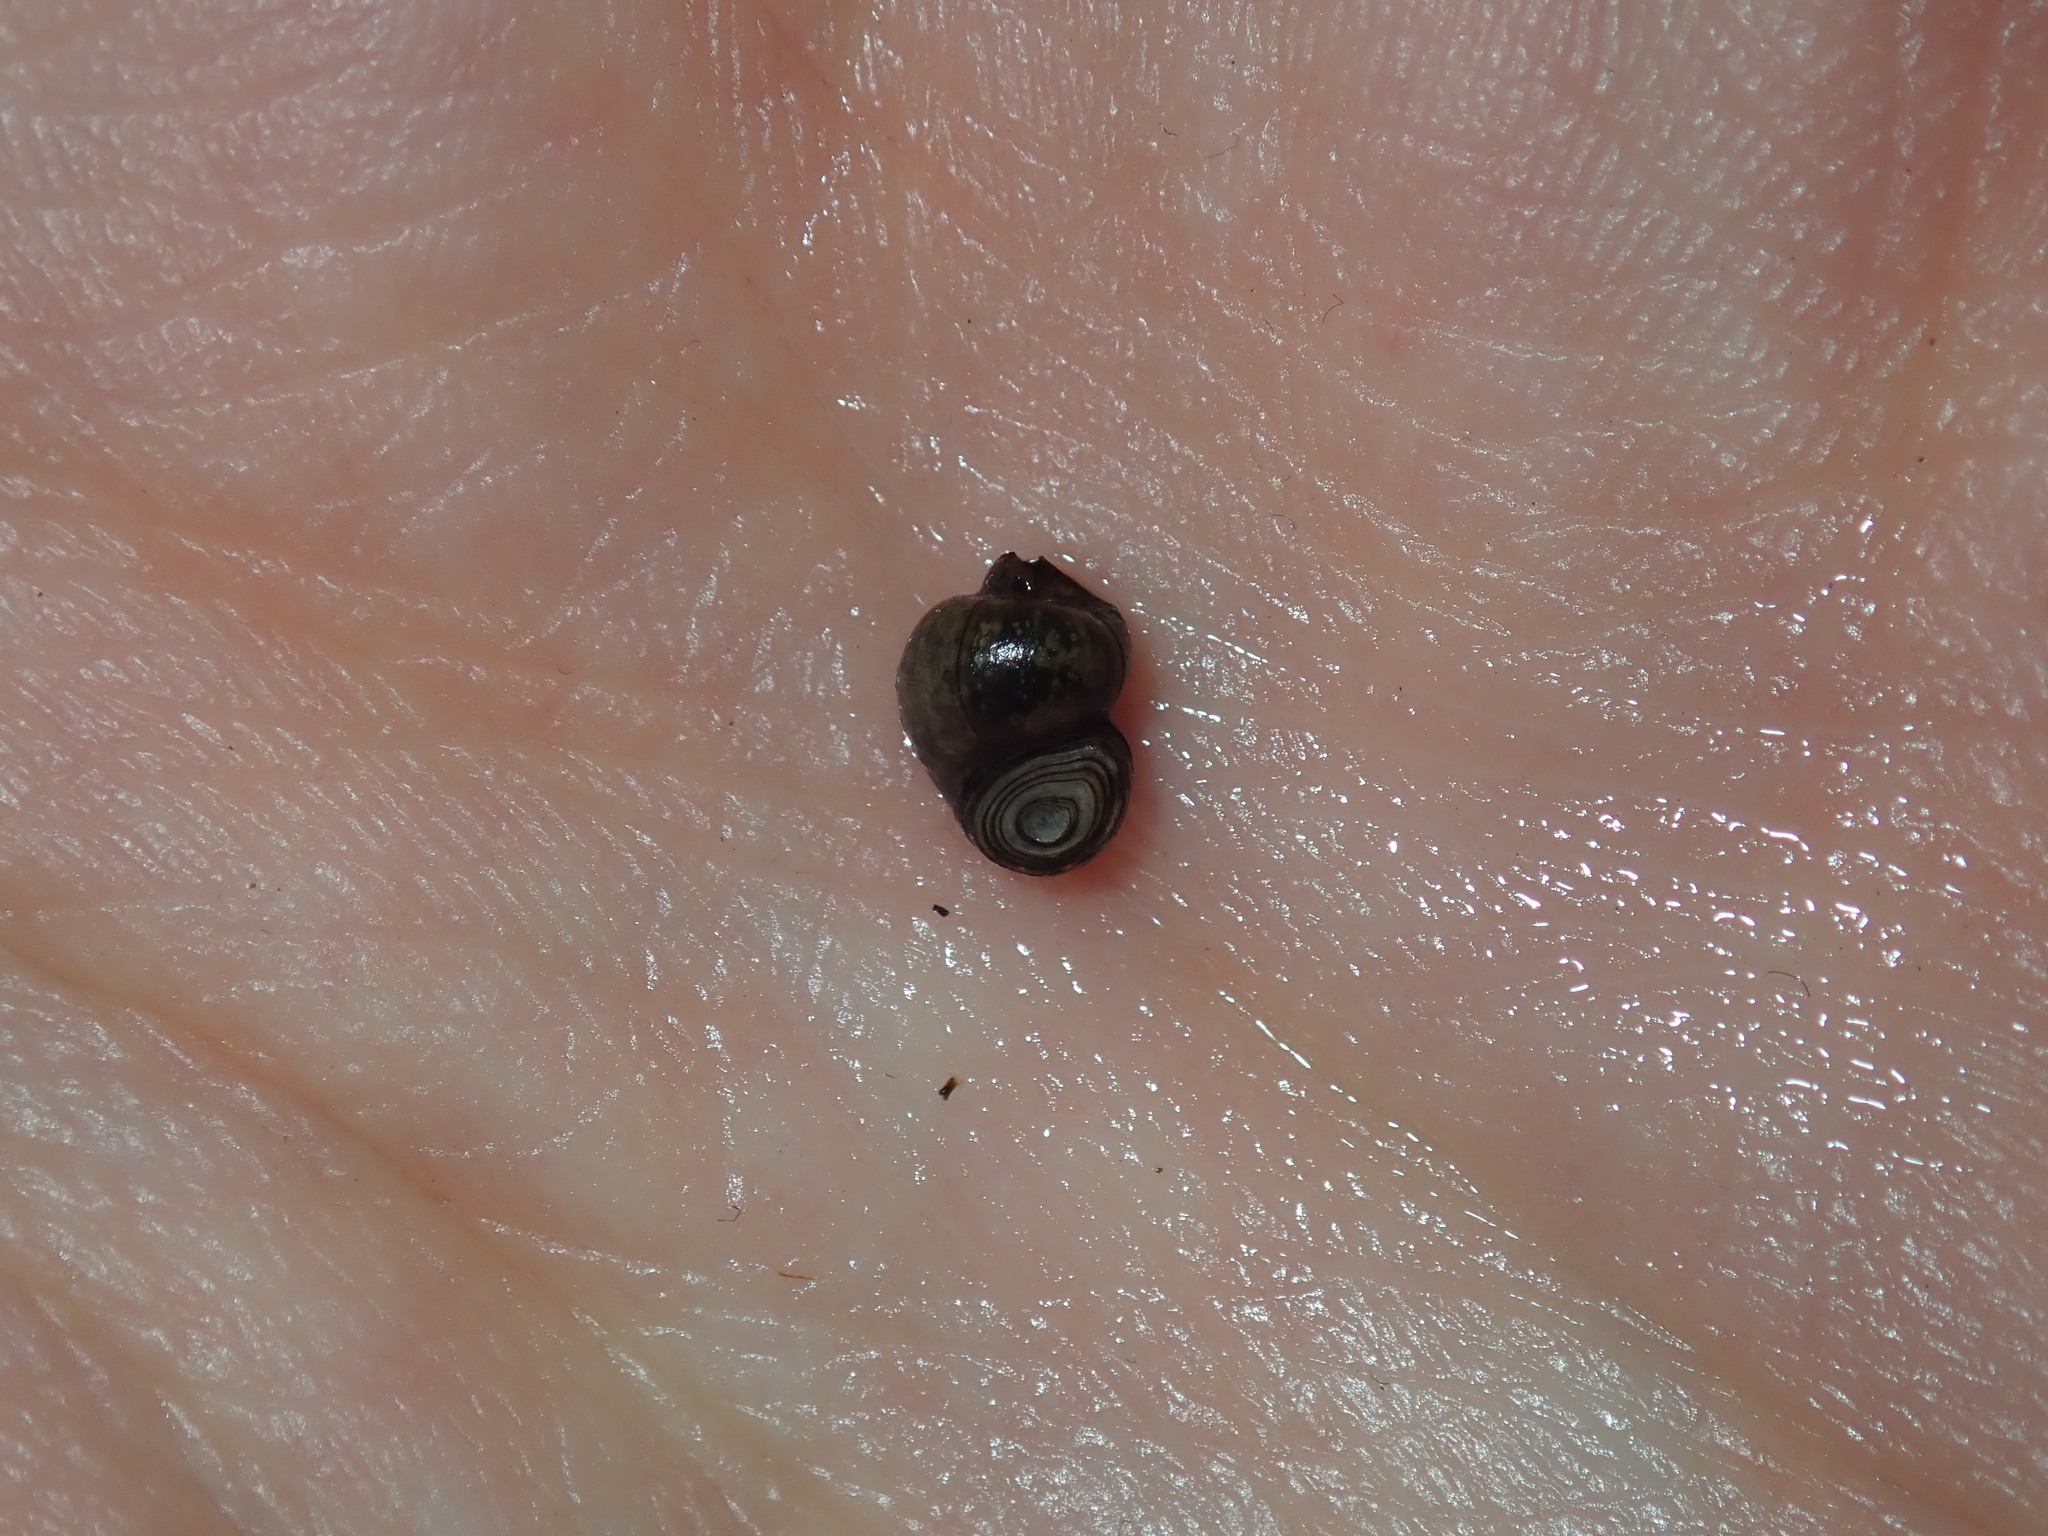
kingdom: Animalia
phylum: Mollusca
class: Gastropoda
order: Littorinimorpha
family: Bithyniidae
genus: Gabbia
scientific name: Gabbia vertiginosa
